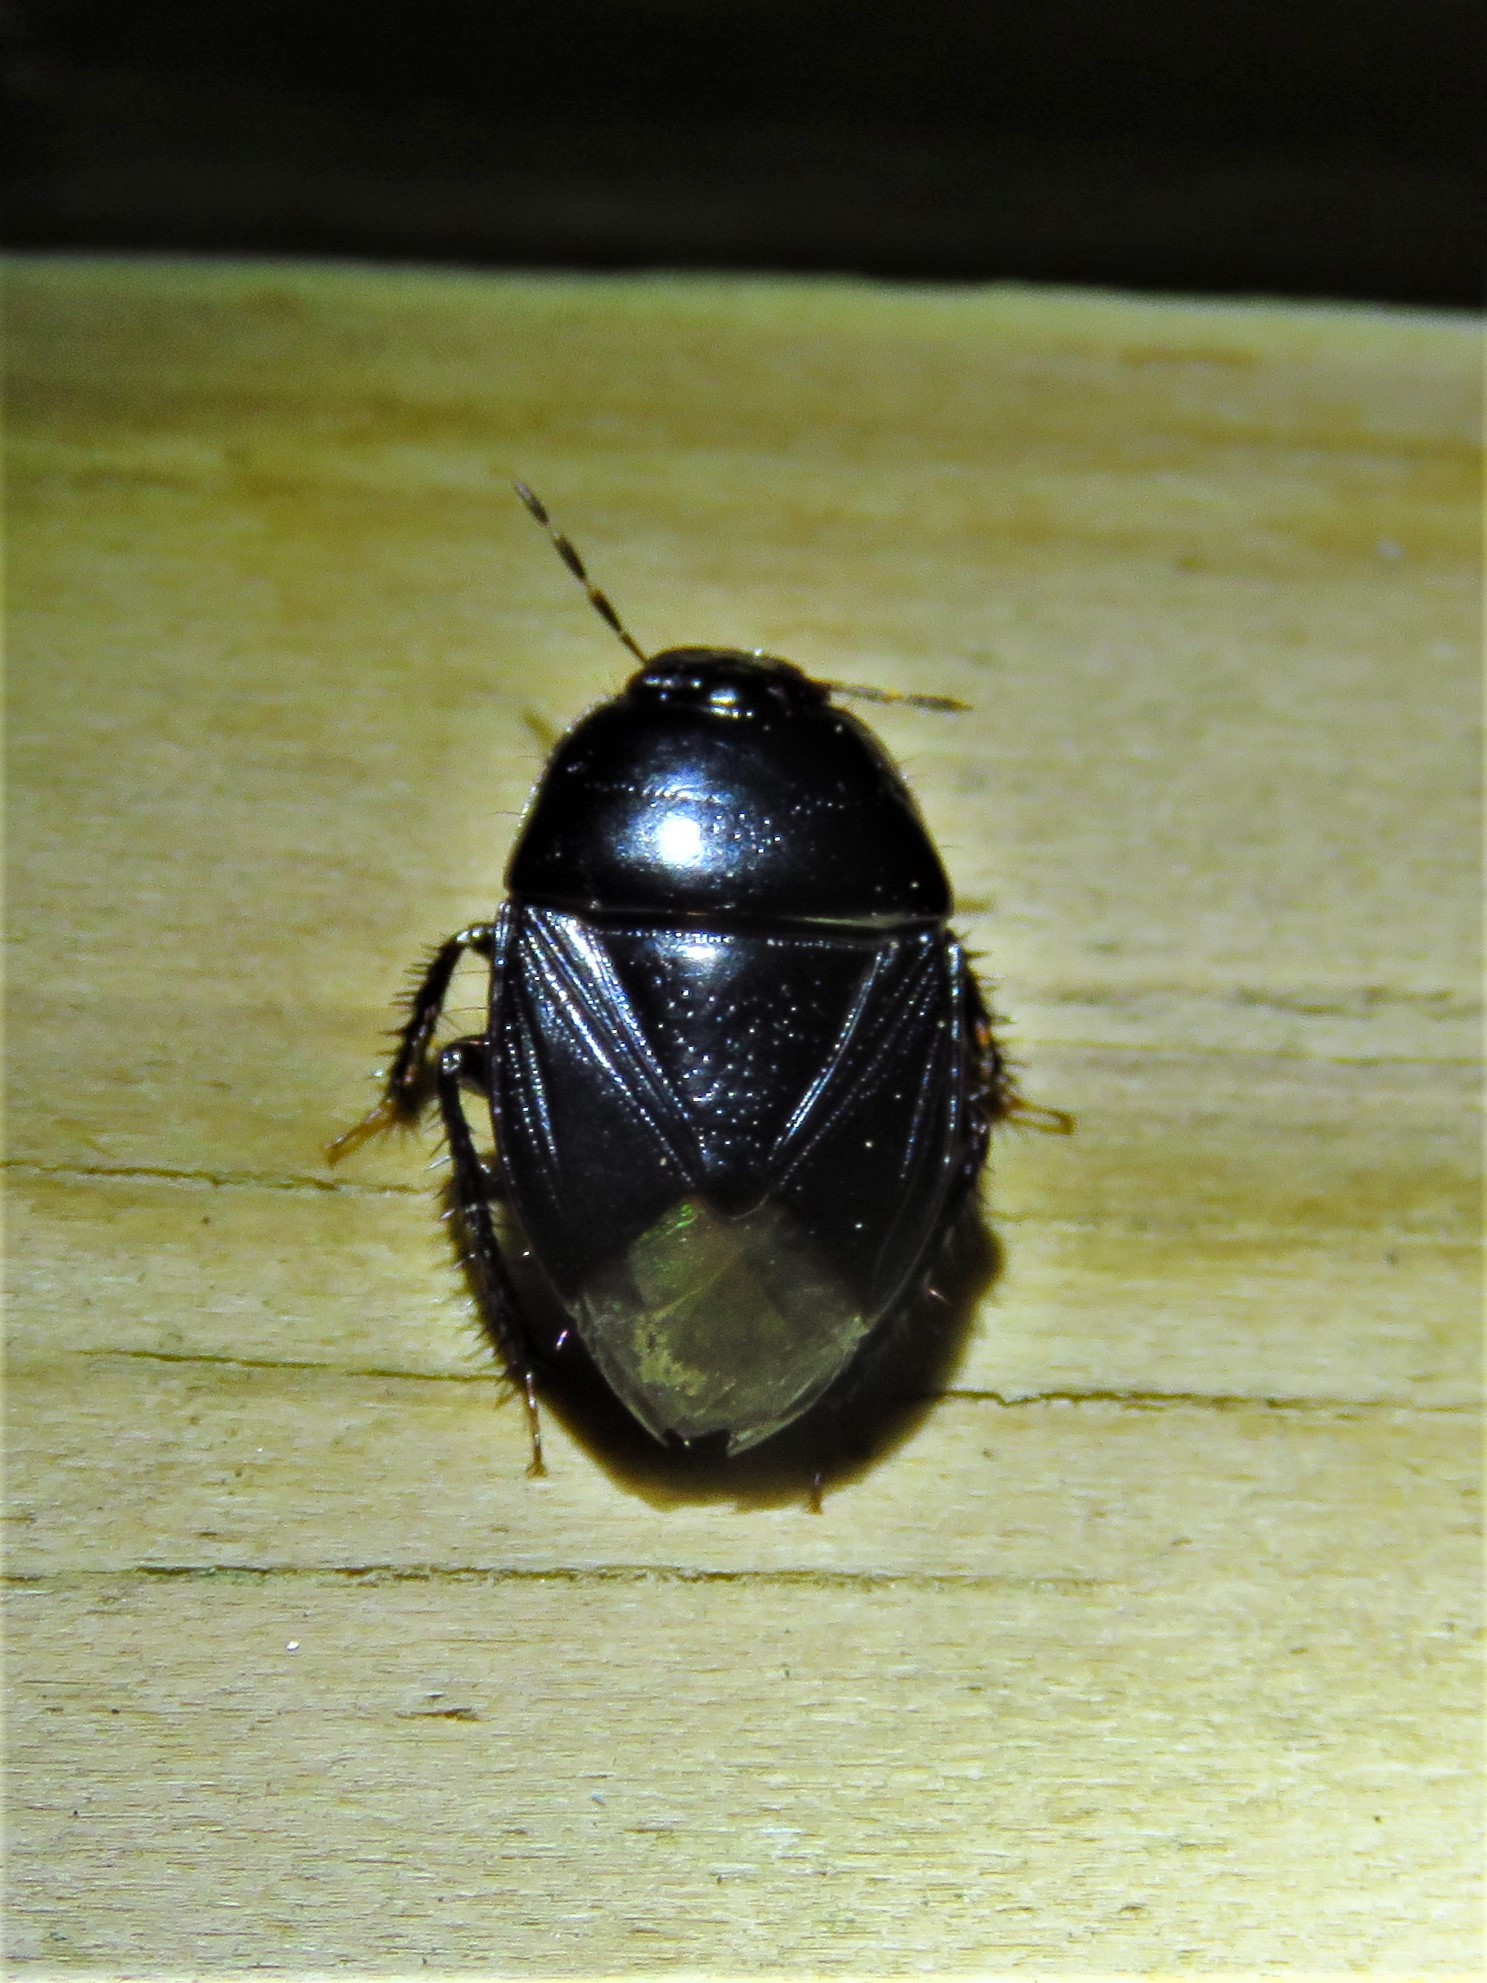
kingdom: Animalia
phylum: Arthropoda
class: Insecta
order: Hemiptera
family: Cydnidae
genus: Pangaeus
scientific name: Pangaeus bilineatus
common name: Burrower bug
